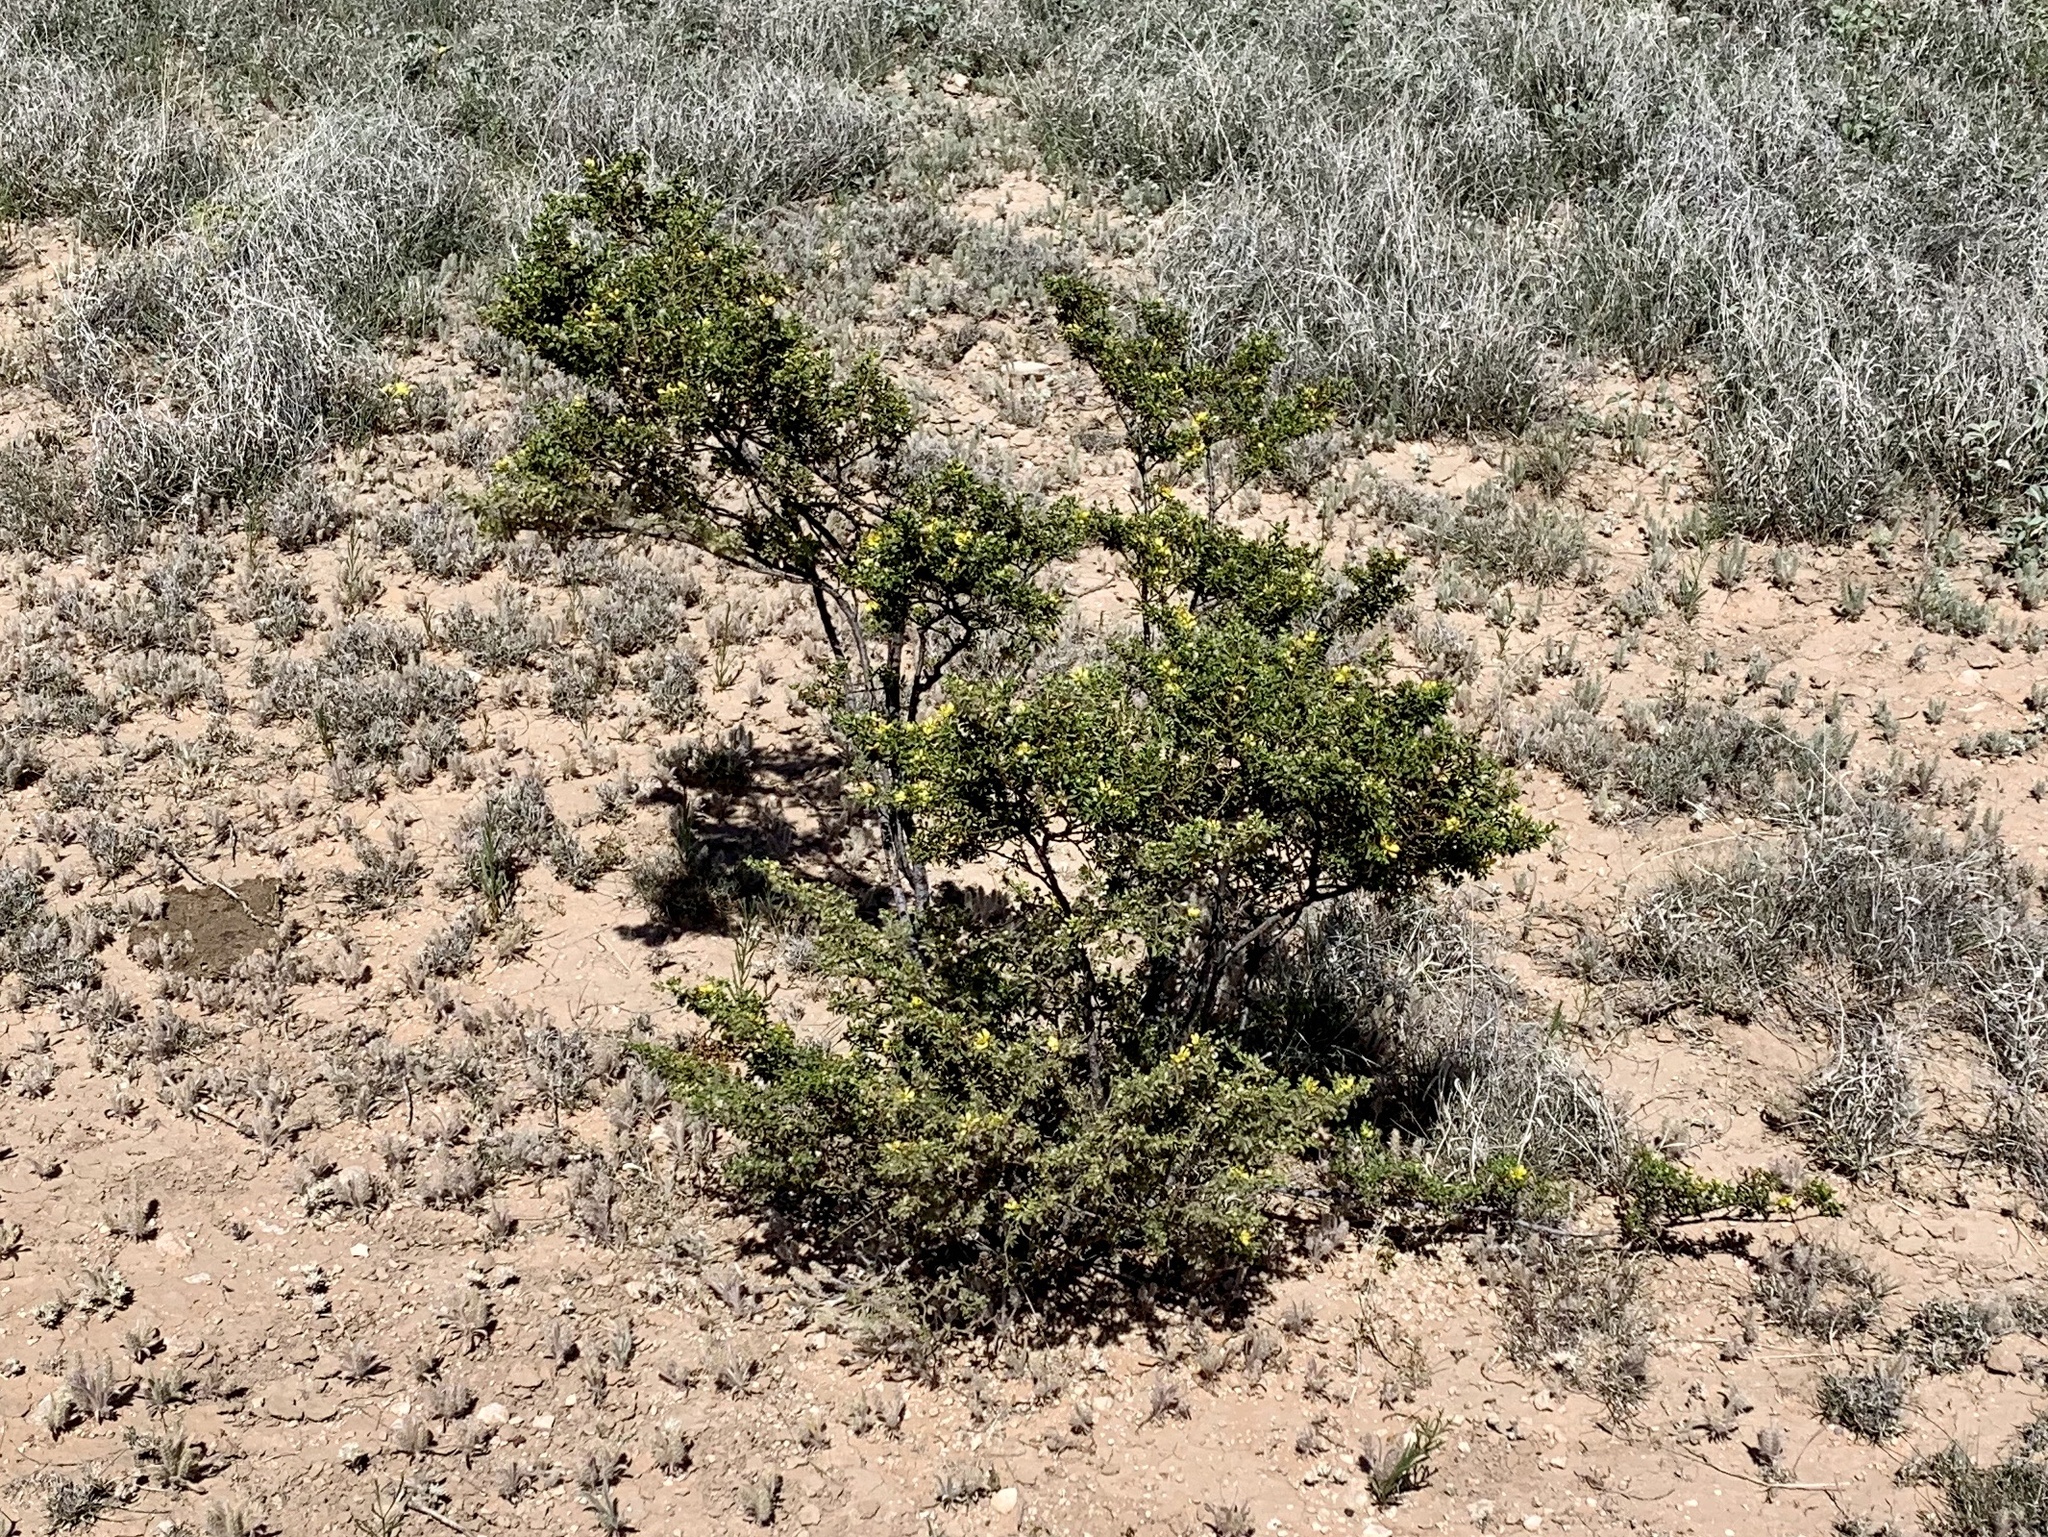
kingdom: Plantae
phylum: Tracheophyta
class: Magnoliopsida
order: Zygophyllales
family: Zygophyllaceae
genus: Larrea
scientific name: Larrea tridentata
